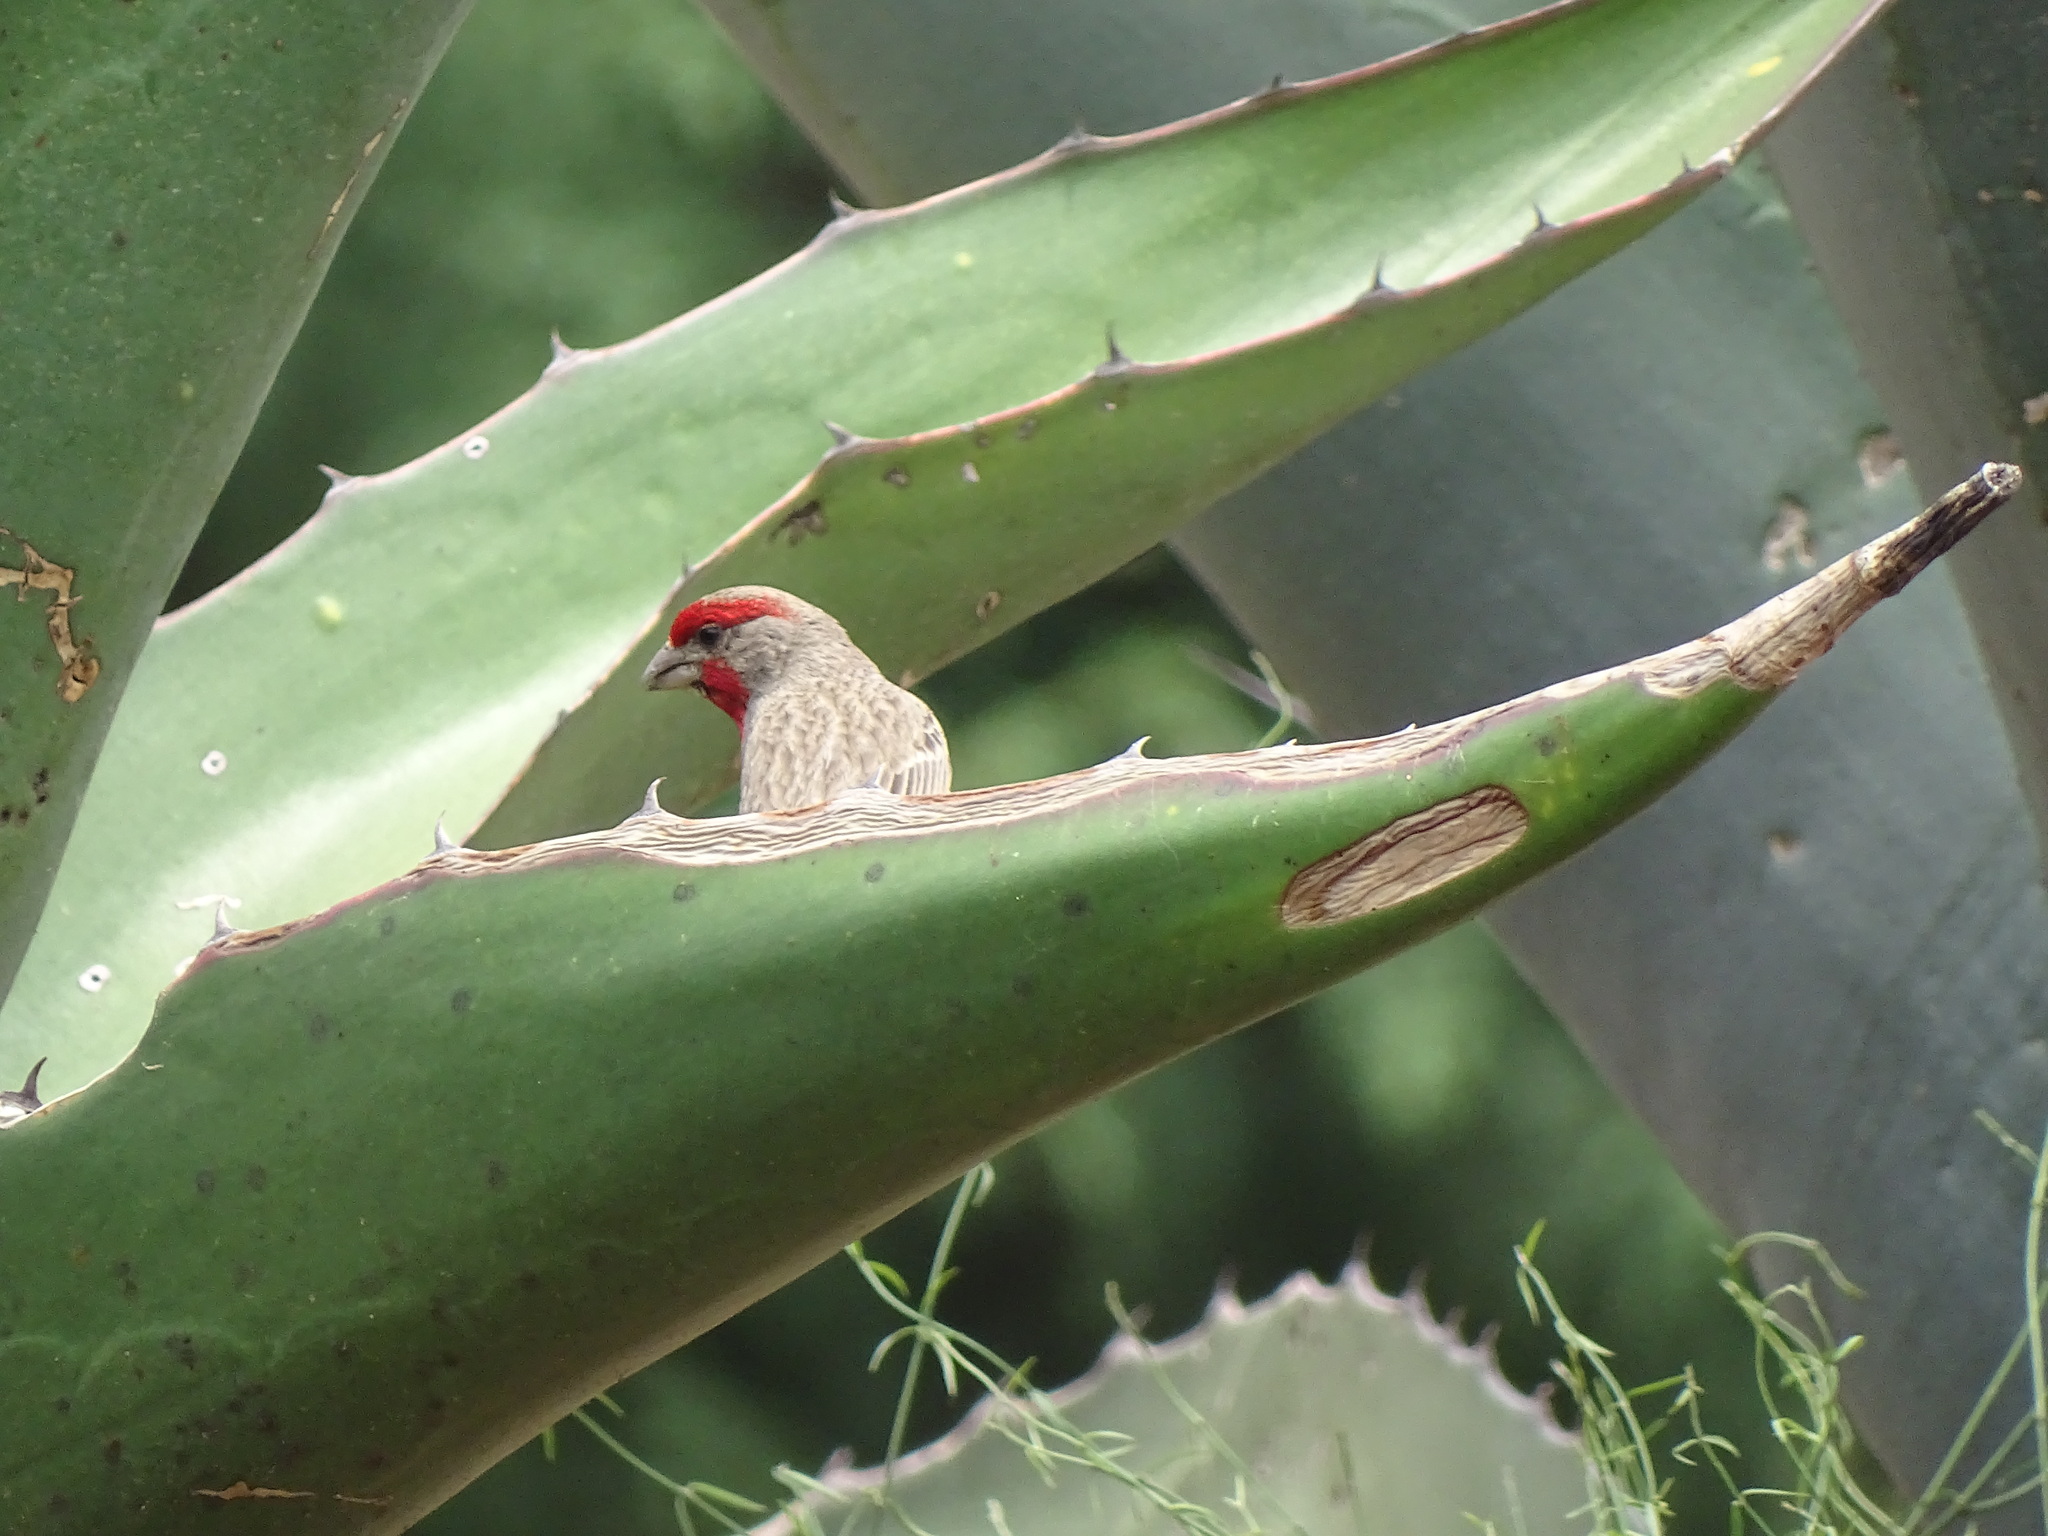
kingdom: Animalia
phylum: Chordata
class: Aves
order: Passeriformes
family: Fringillidae
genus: Haemorhous
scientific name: Haemorhous mexicanus
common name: House finch
